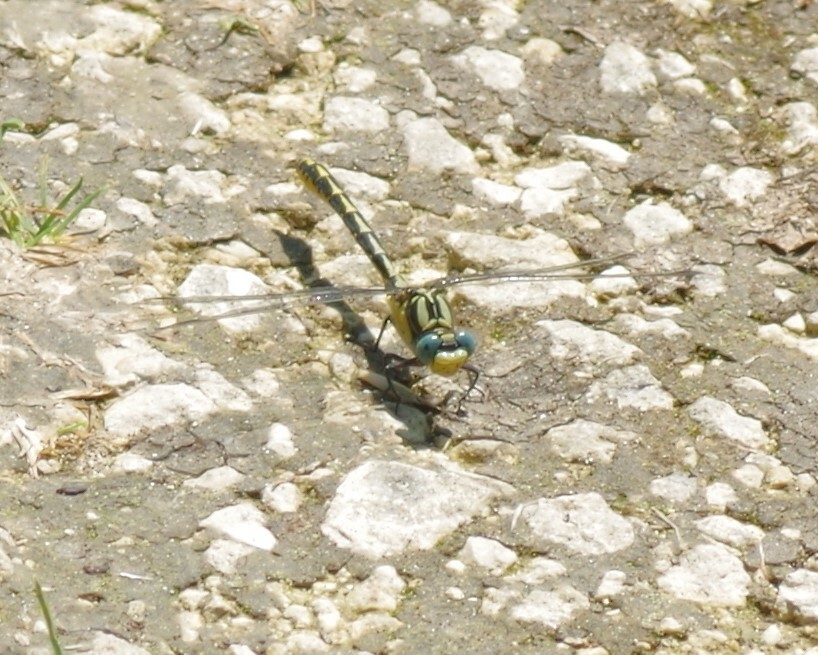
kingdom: Animalia
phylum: Arthropoda
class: Insecta
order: Odonata
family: Gomphidae
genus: Gomphus
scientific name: Gomphus graslinii
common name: Pronged clubtail
